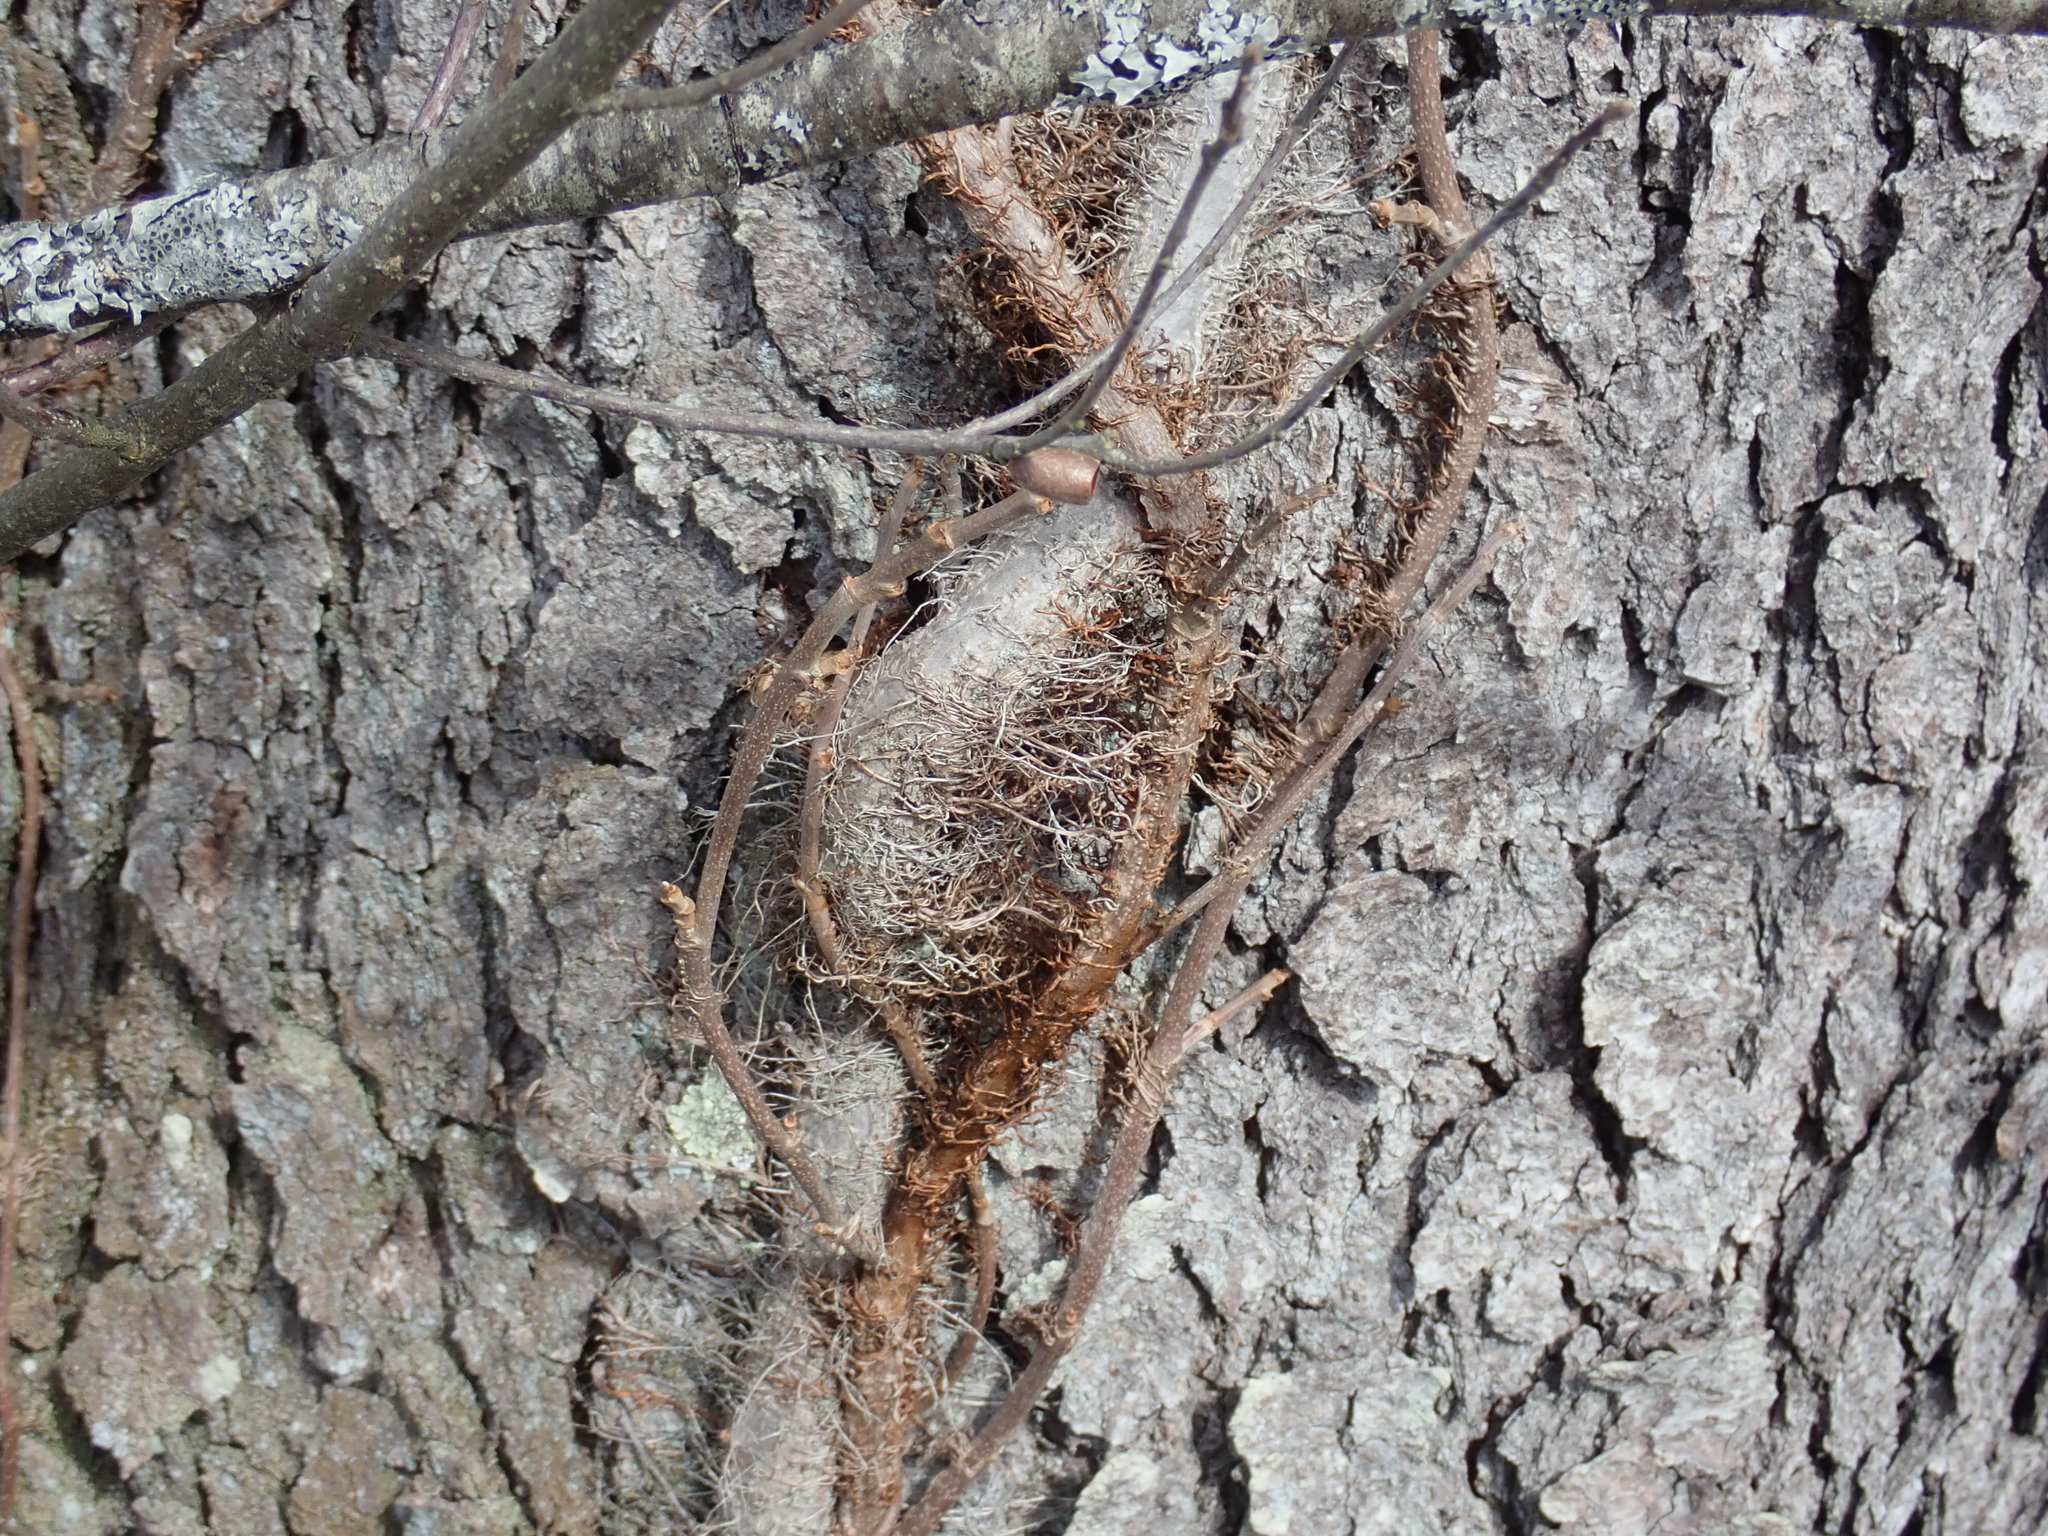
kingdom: Plantae
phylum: Tracheophyta
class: Magnoliopsida
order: Sapindales
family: Anacardiaceae
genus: Toxicodendron
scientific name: Toxicodendron radicans
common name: Poison ivy
